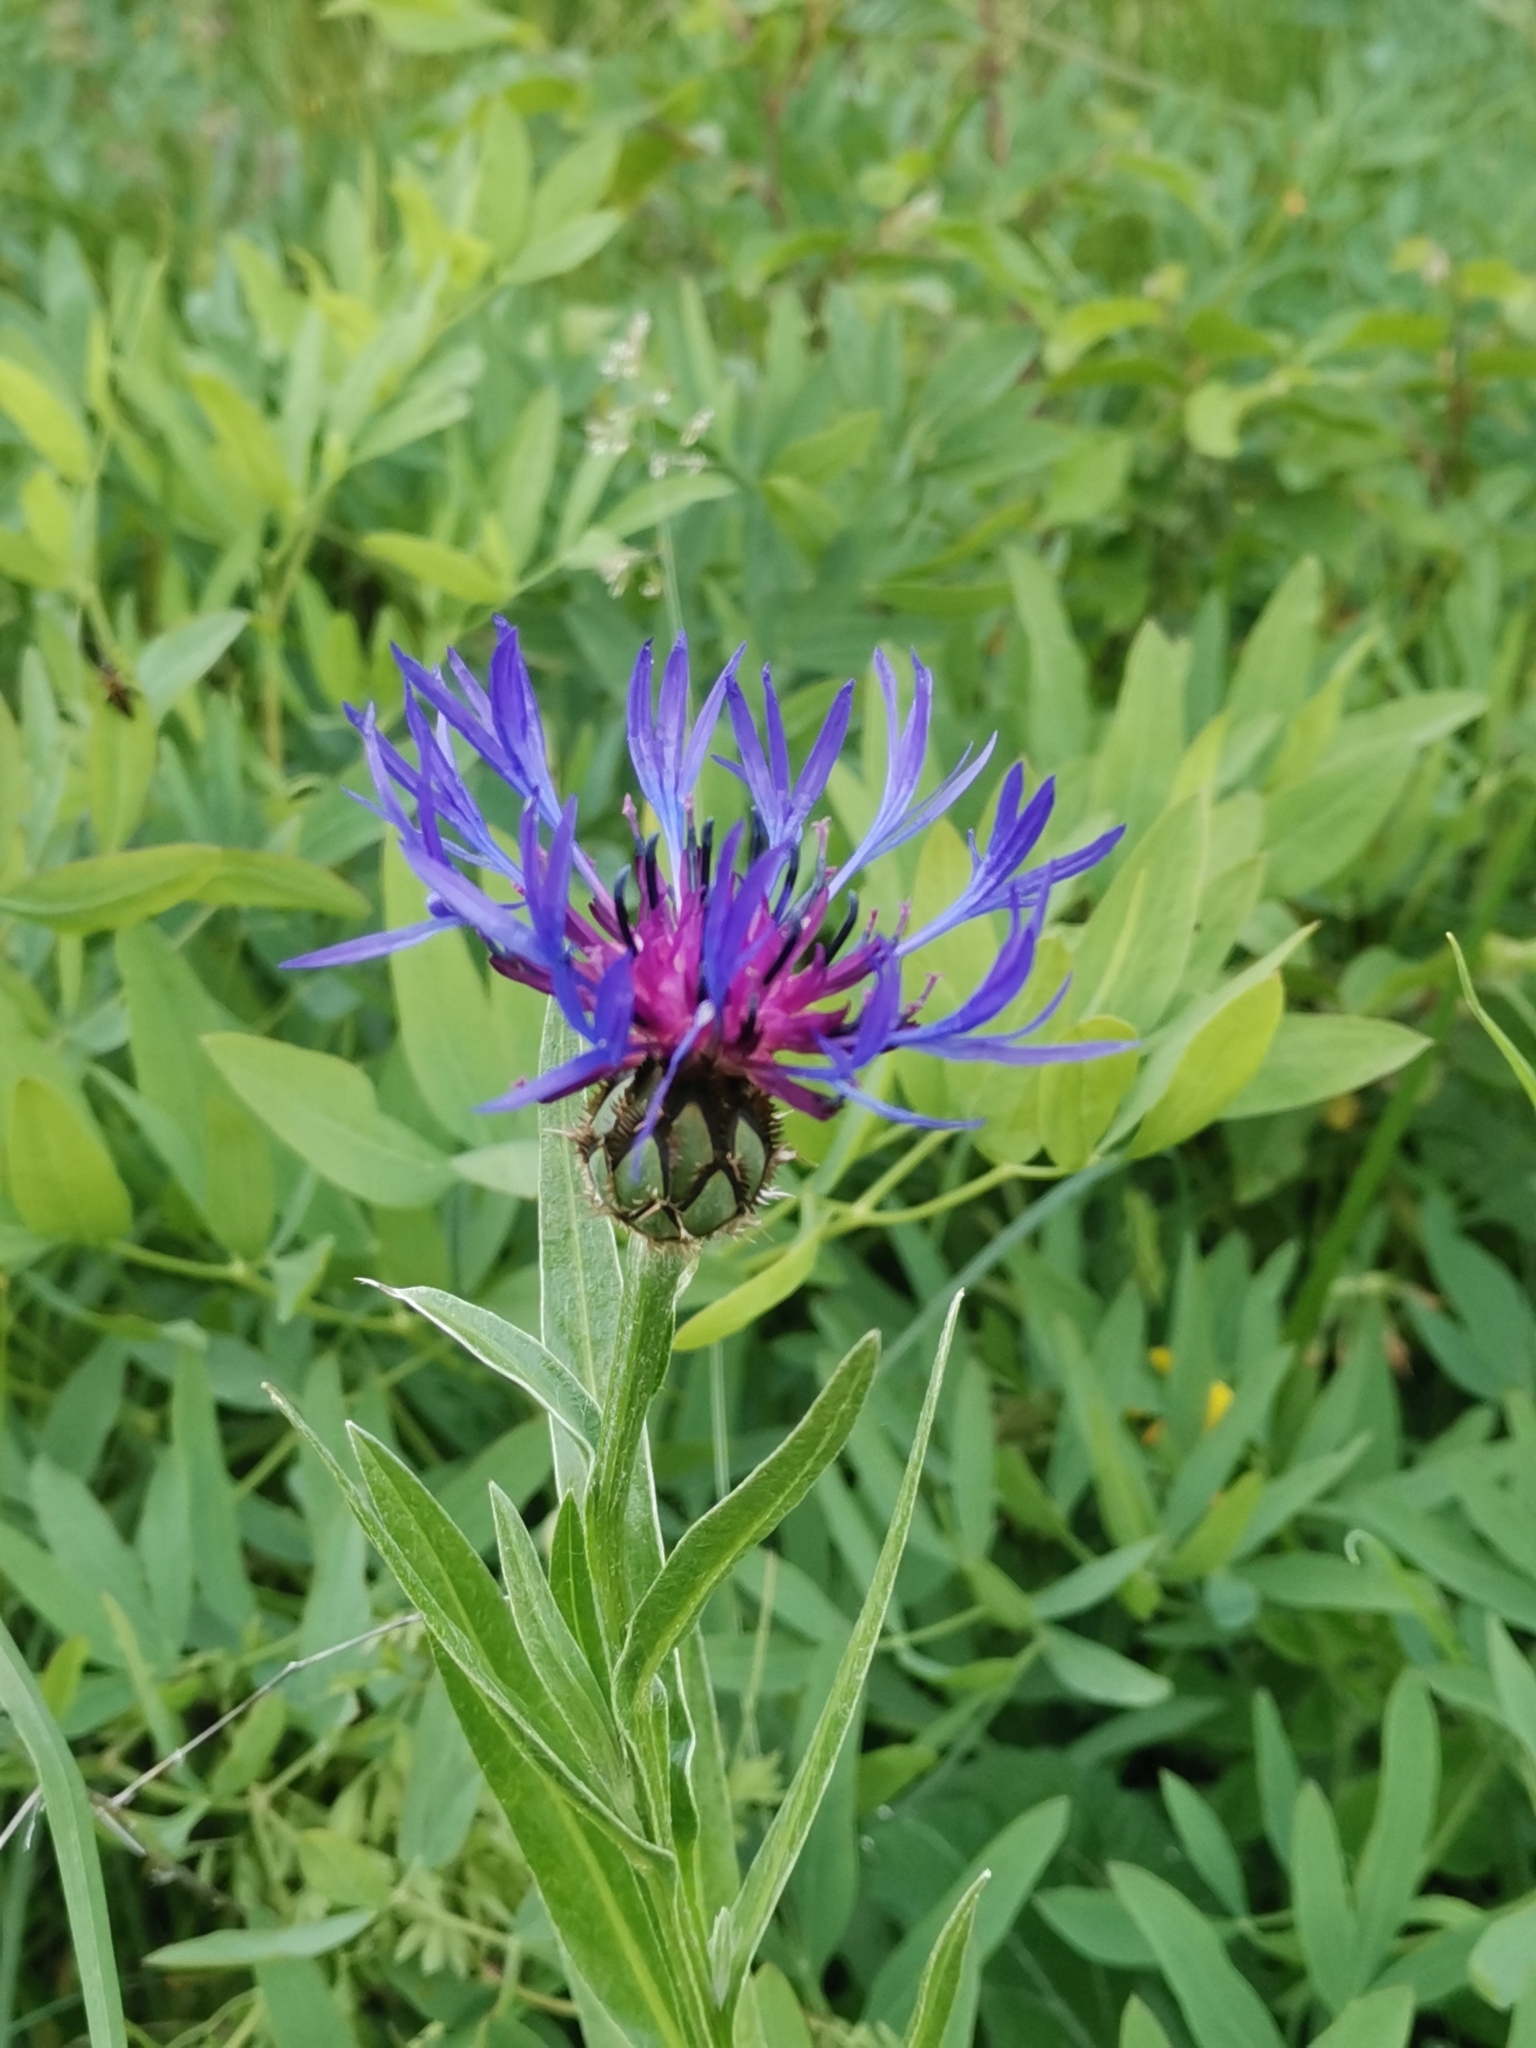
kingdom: Plantae
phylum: Tracheophyta
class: Magnoliopsida
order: Asterales
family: Asteraceae
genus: Centaurea
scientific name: Centaurea triumfettii
